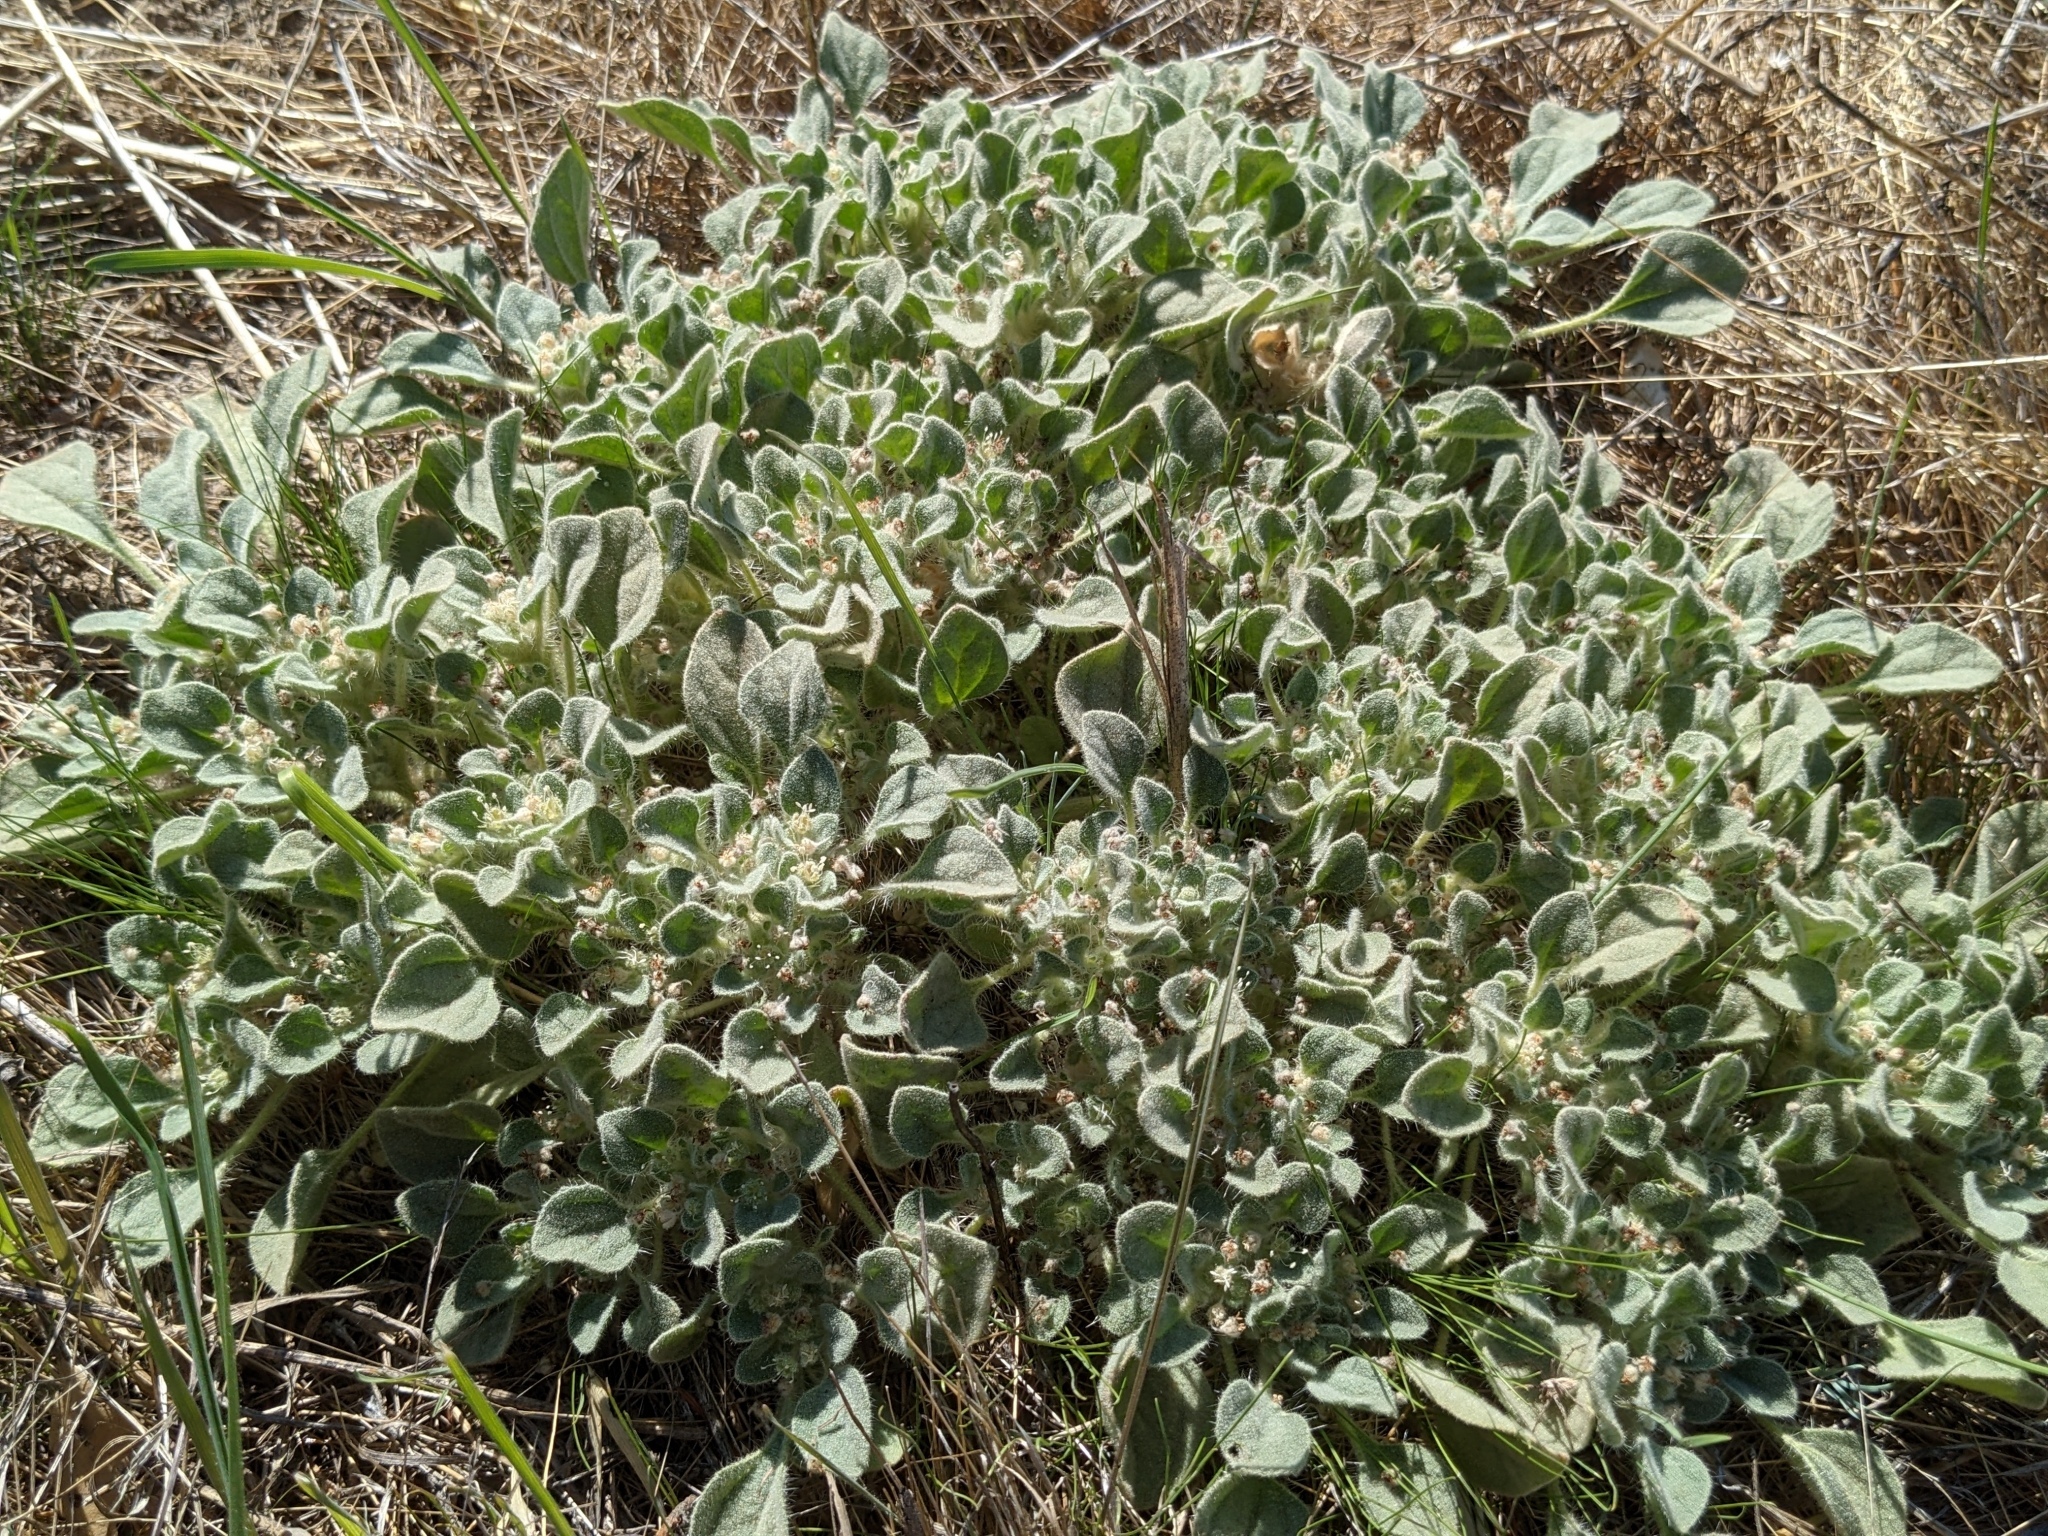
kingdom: Plantae
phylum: Tracheophyta
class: Magnoliopsida
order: Malpighiales
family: Euphorbiaceae
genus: Croton
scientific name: Croton setiger
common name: Dove weed
